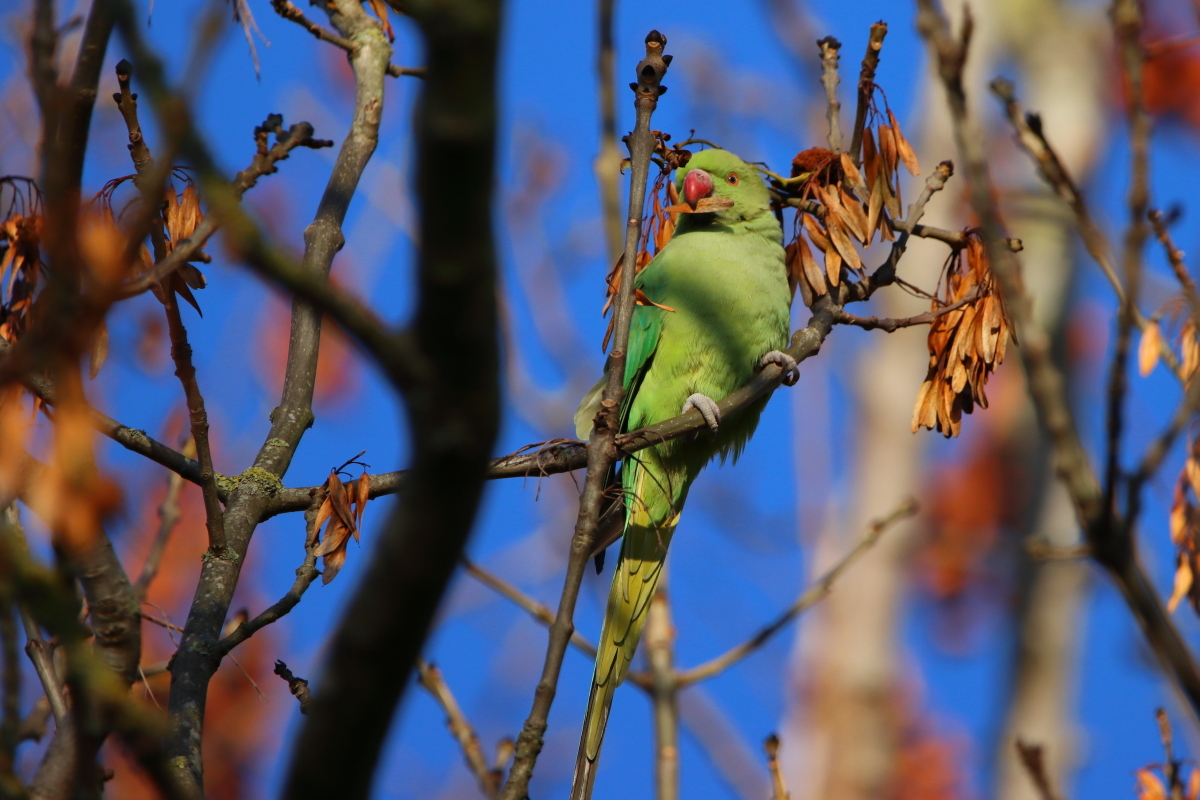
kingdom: Animalia
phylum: Chordata
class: Aves
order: Psittaciformes
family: Psittacidae
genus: Psittacula
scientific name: Psittacula krameri
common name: Rose-ringed parakeet
